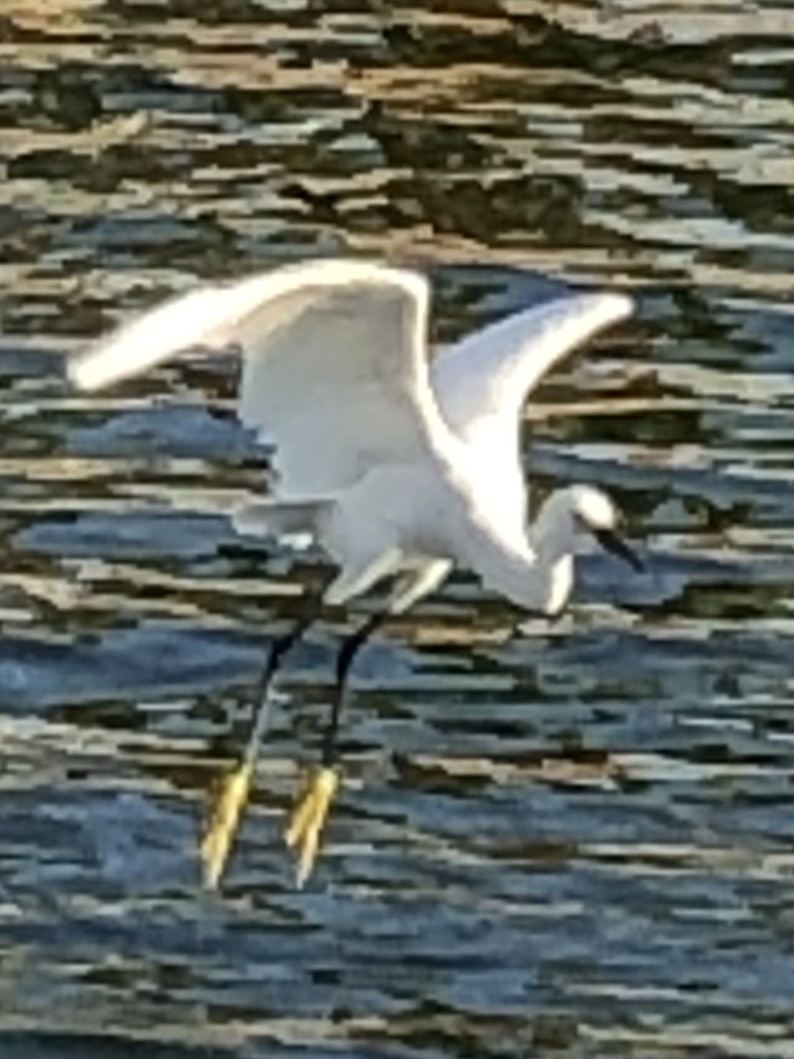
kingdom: Animalia
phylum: Chordata
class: Aves
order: Pelecaniformes
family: Ardeidae
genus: Egretta
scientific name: Egretta thula
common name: Snowy egret
